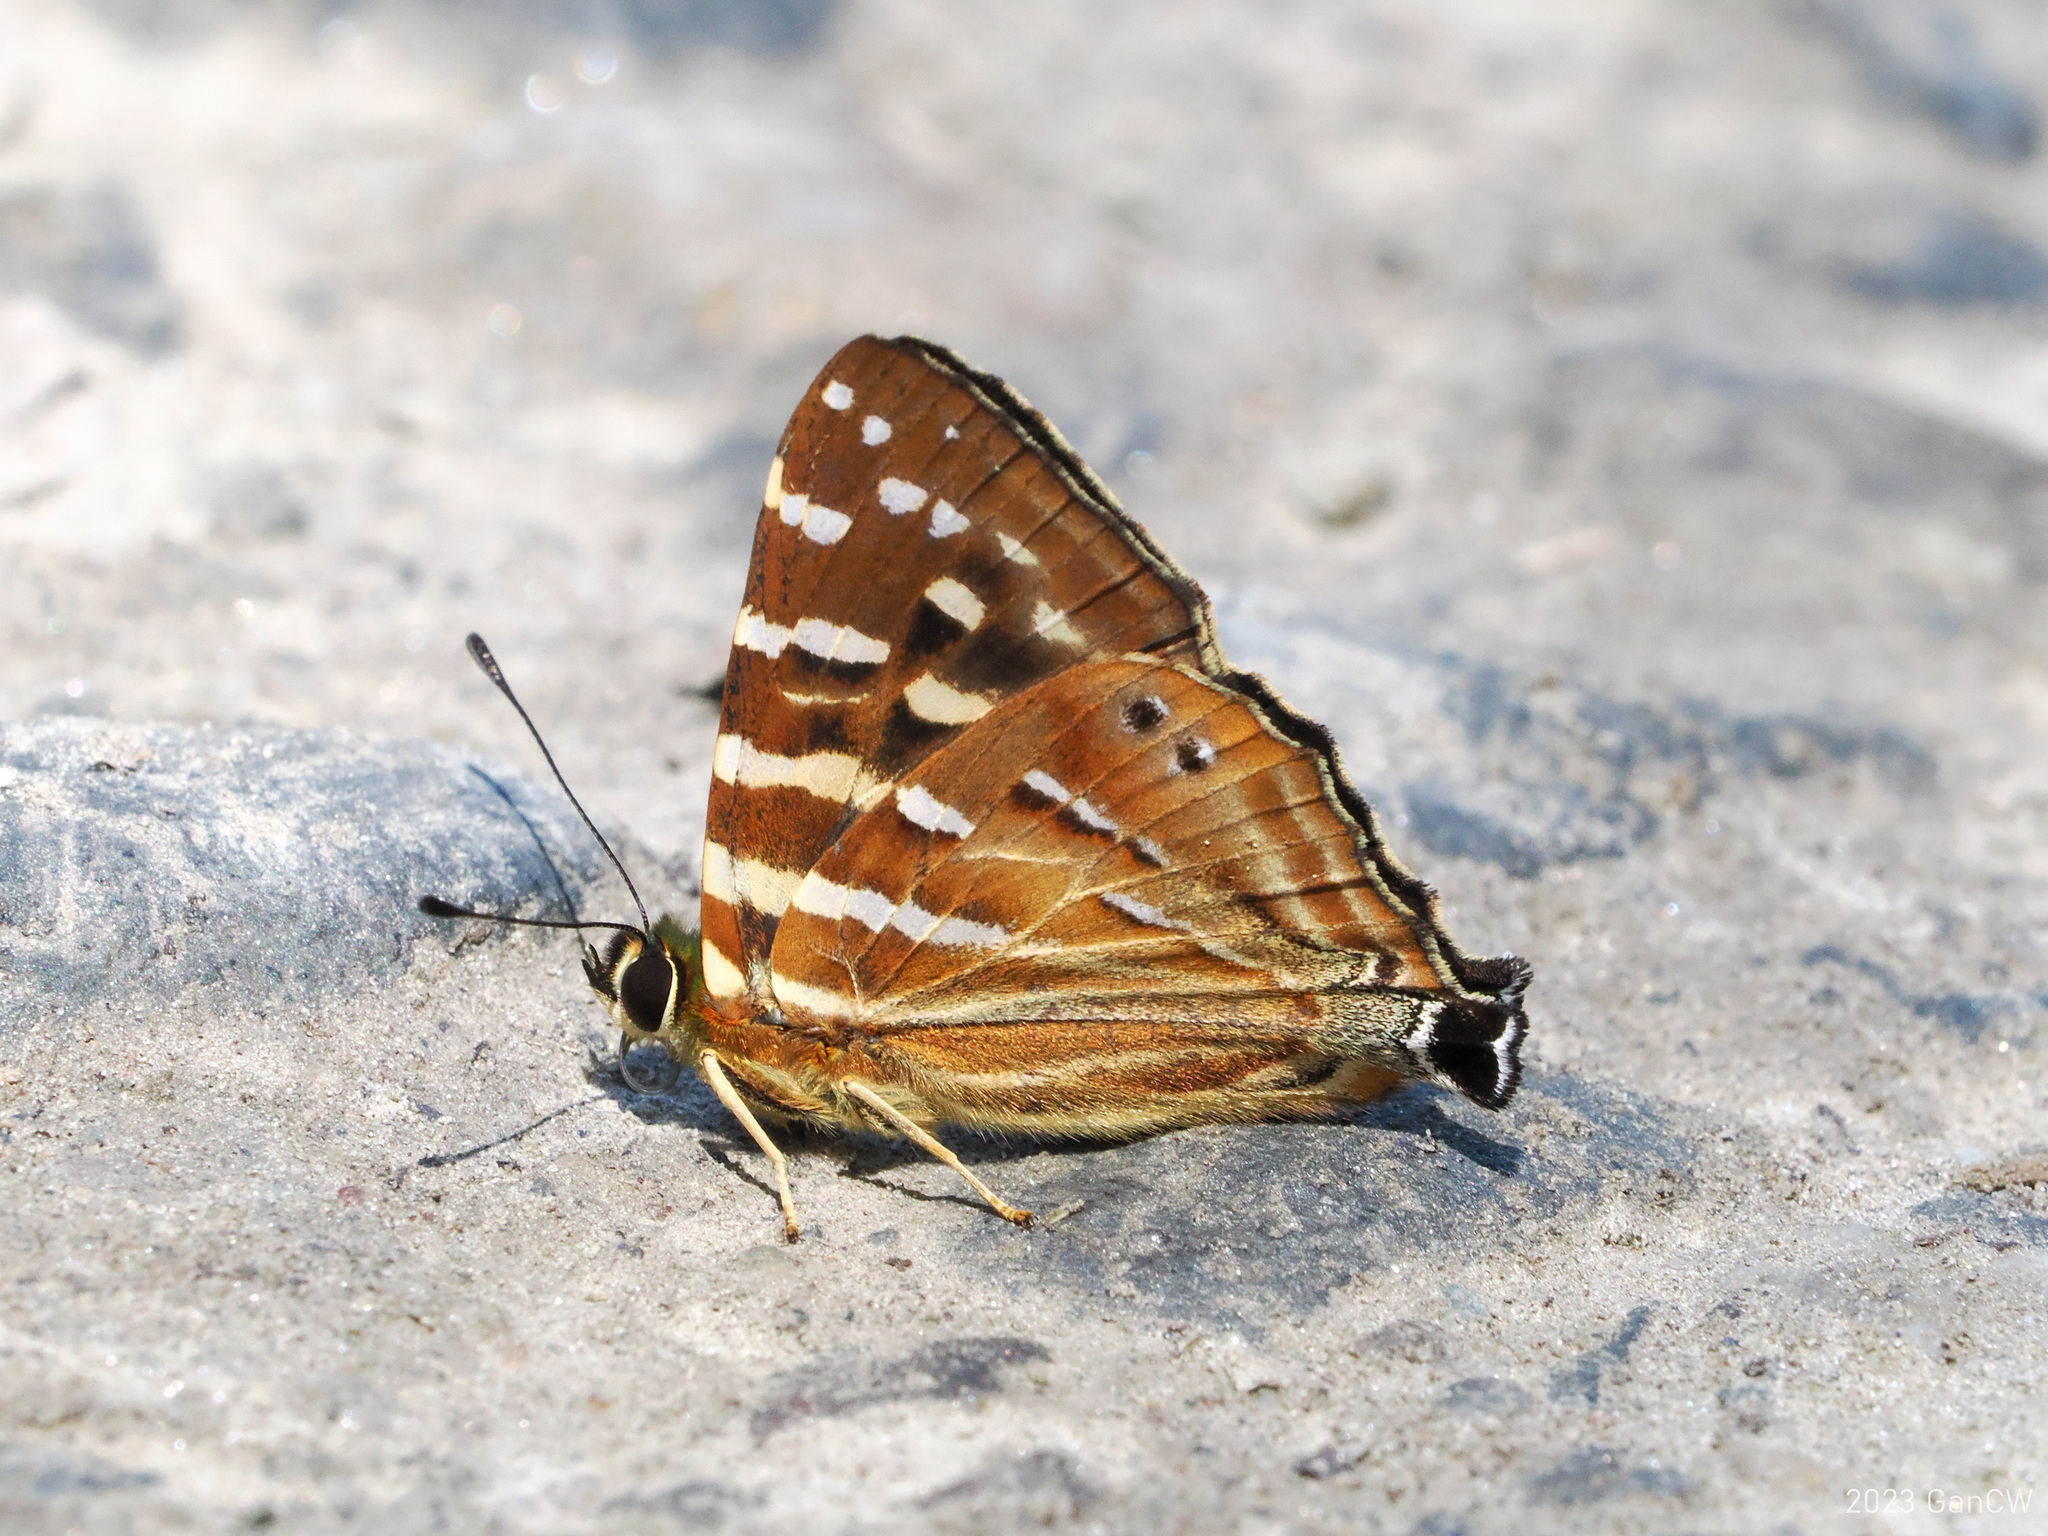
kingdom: Animalia
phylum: Arthropoda
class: Insecta
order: Lepidoptera
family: Lycaenidae
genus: Dodona
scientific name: Dodona dipoea
